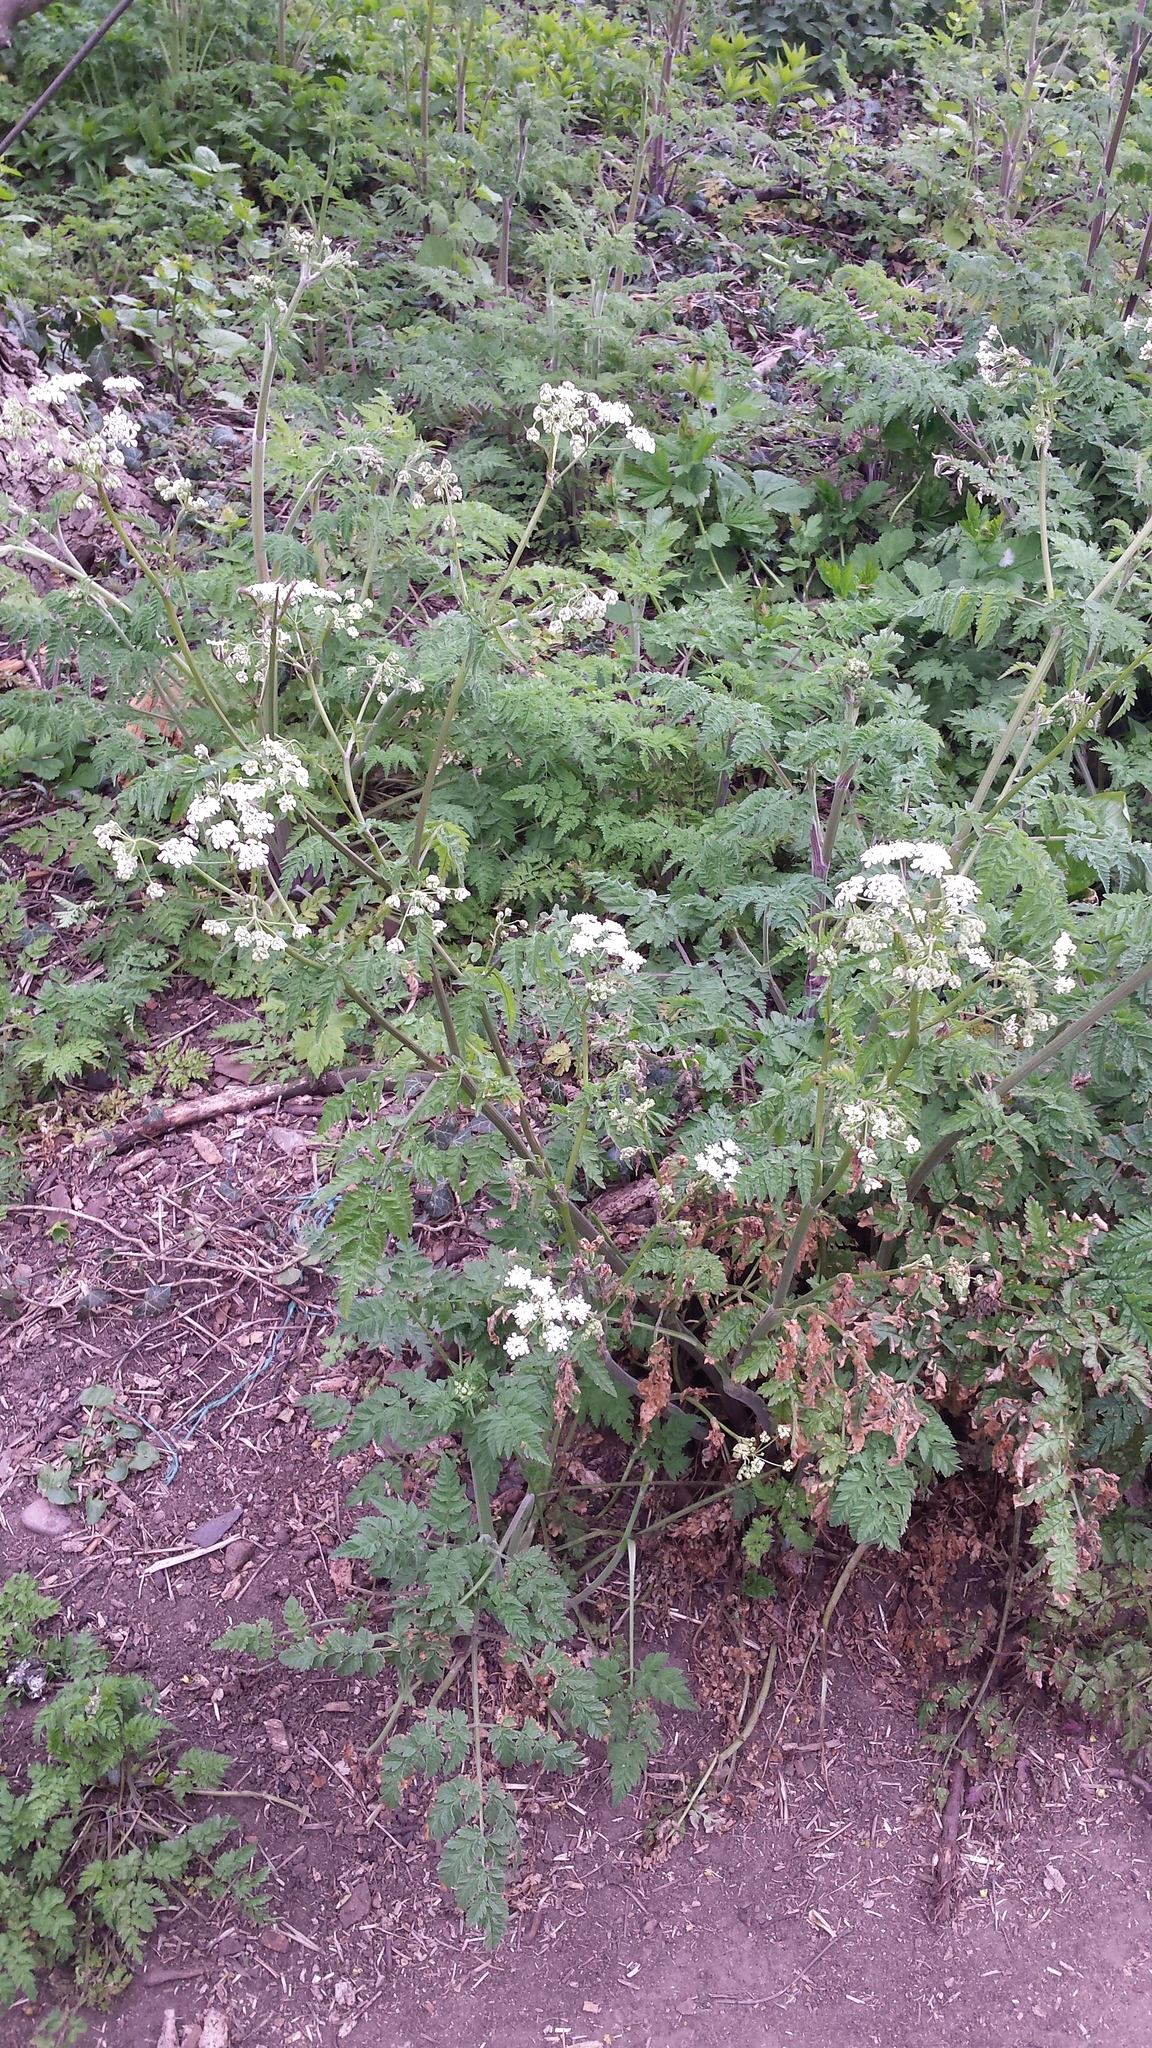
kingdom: Plantae
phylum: Tracheophyta
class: Magnoliopsida
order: Apiales
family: Apiaceae
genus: Anthriscus
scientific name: Anthriscus sylvestris
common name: Cow parsley
